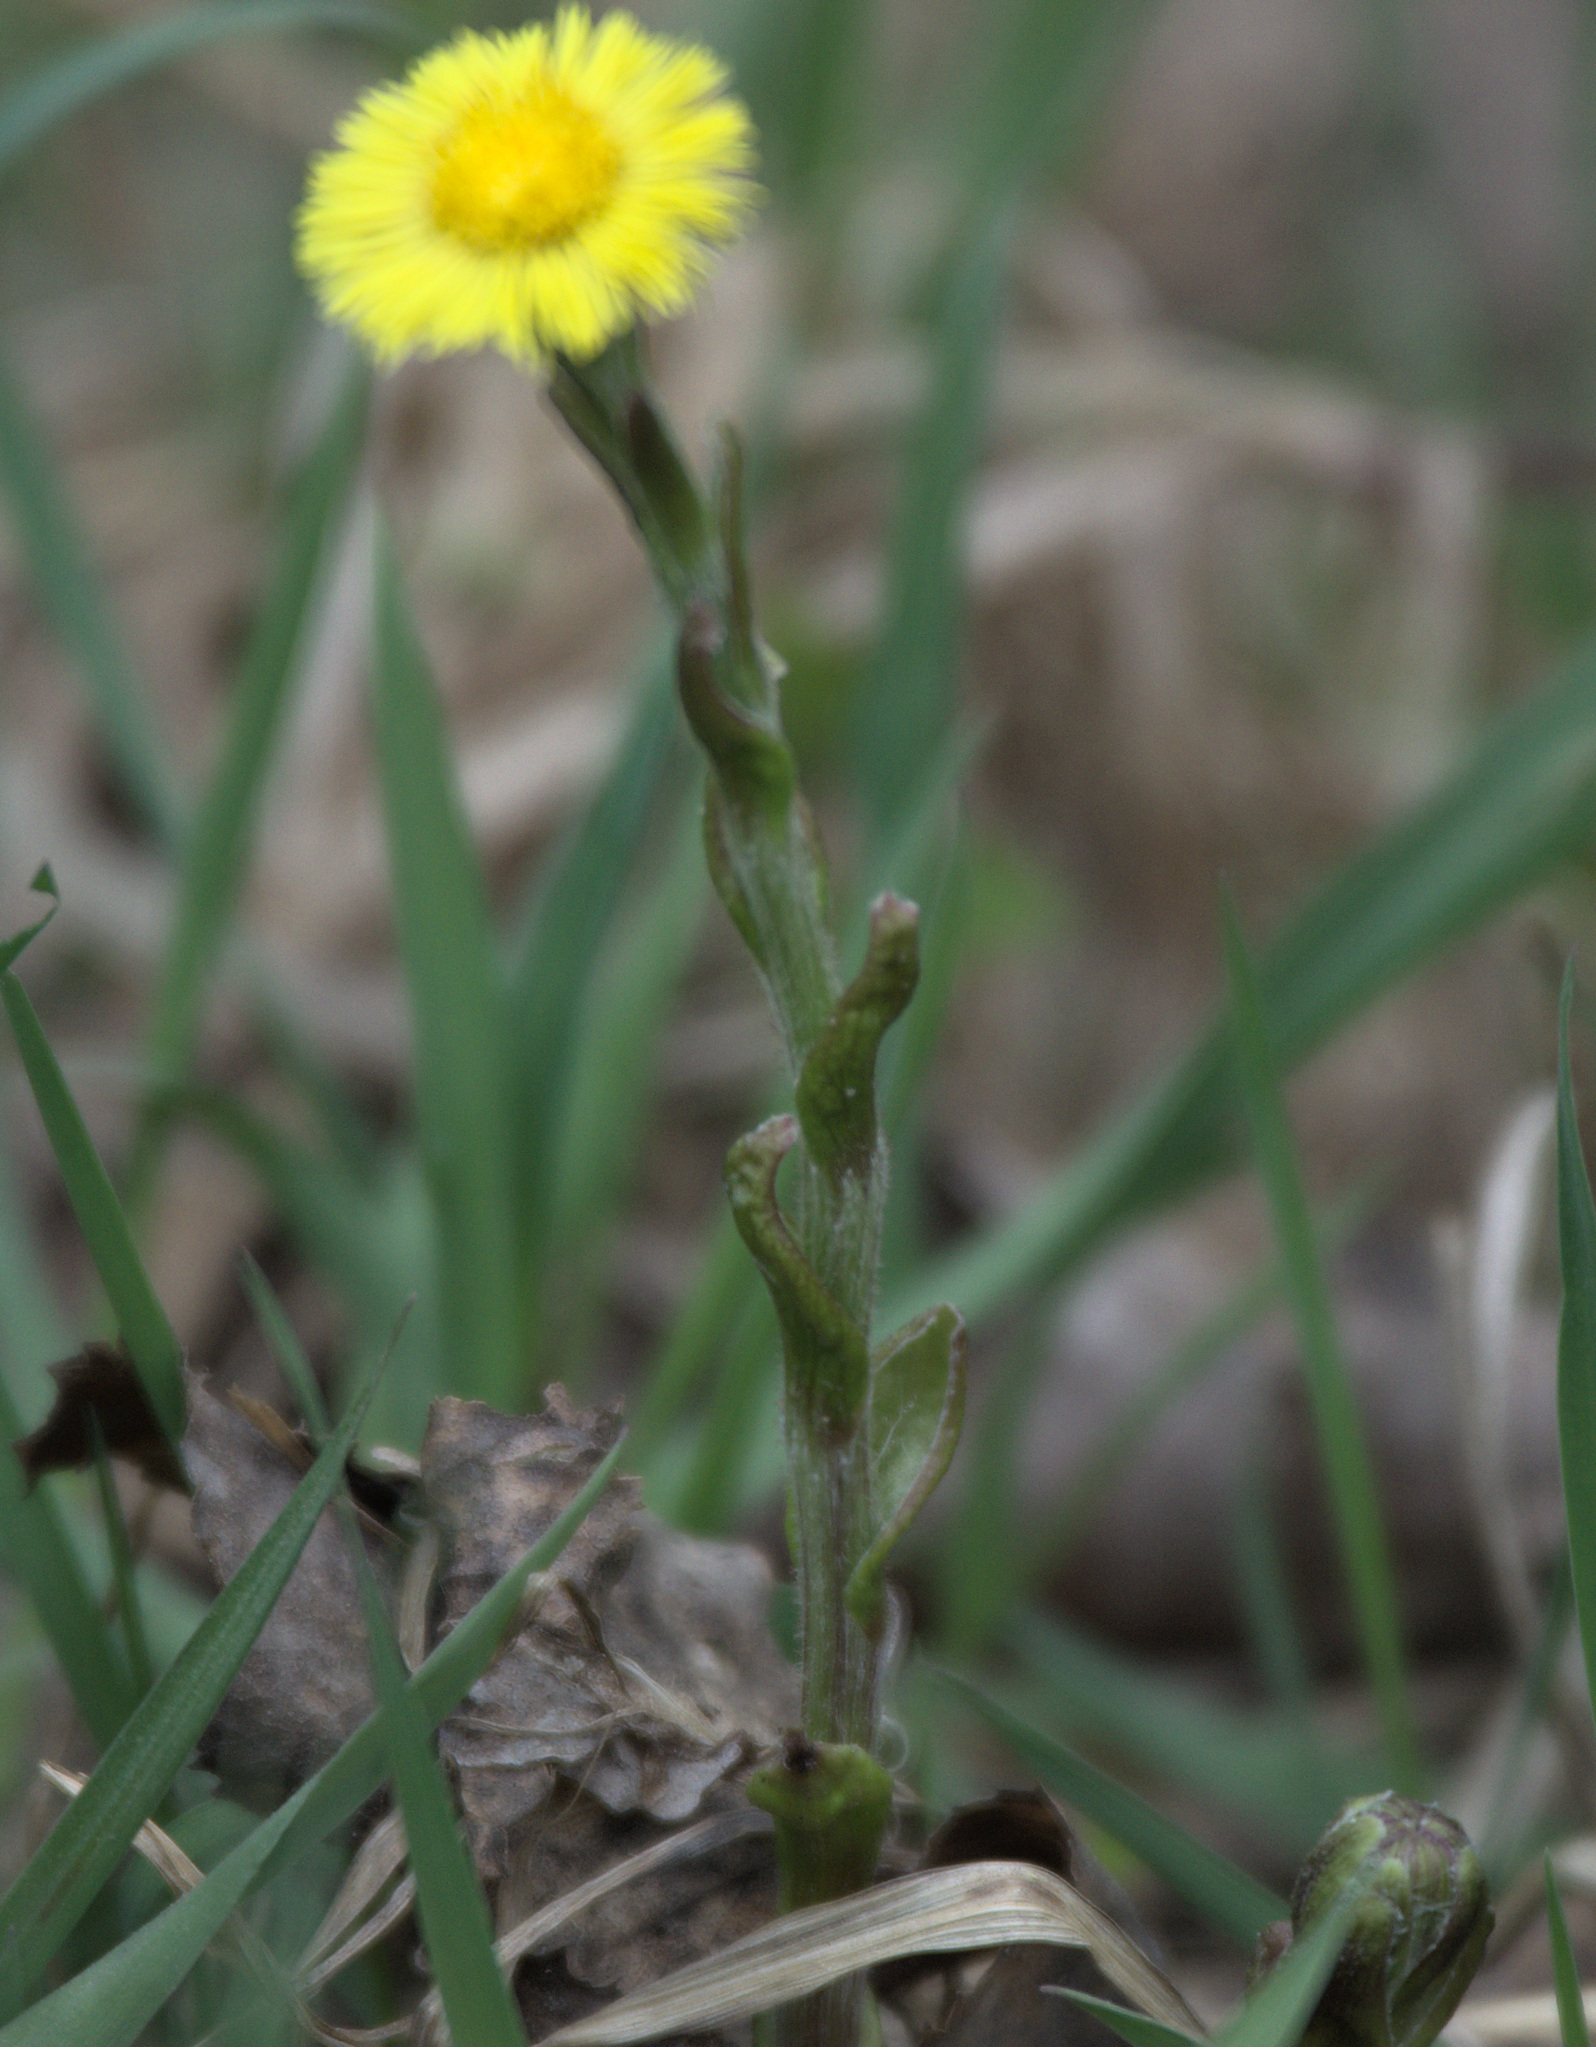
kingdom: Plantae
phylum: Tracheophyta
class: Magnoliopsida
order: Asterales
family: Asteraceae
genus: Tussilago
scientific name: Tussilago farfara
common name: Coltsfoot
